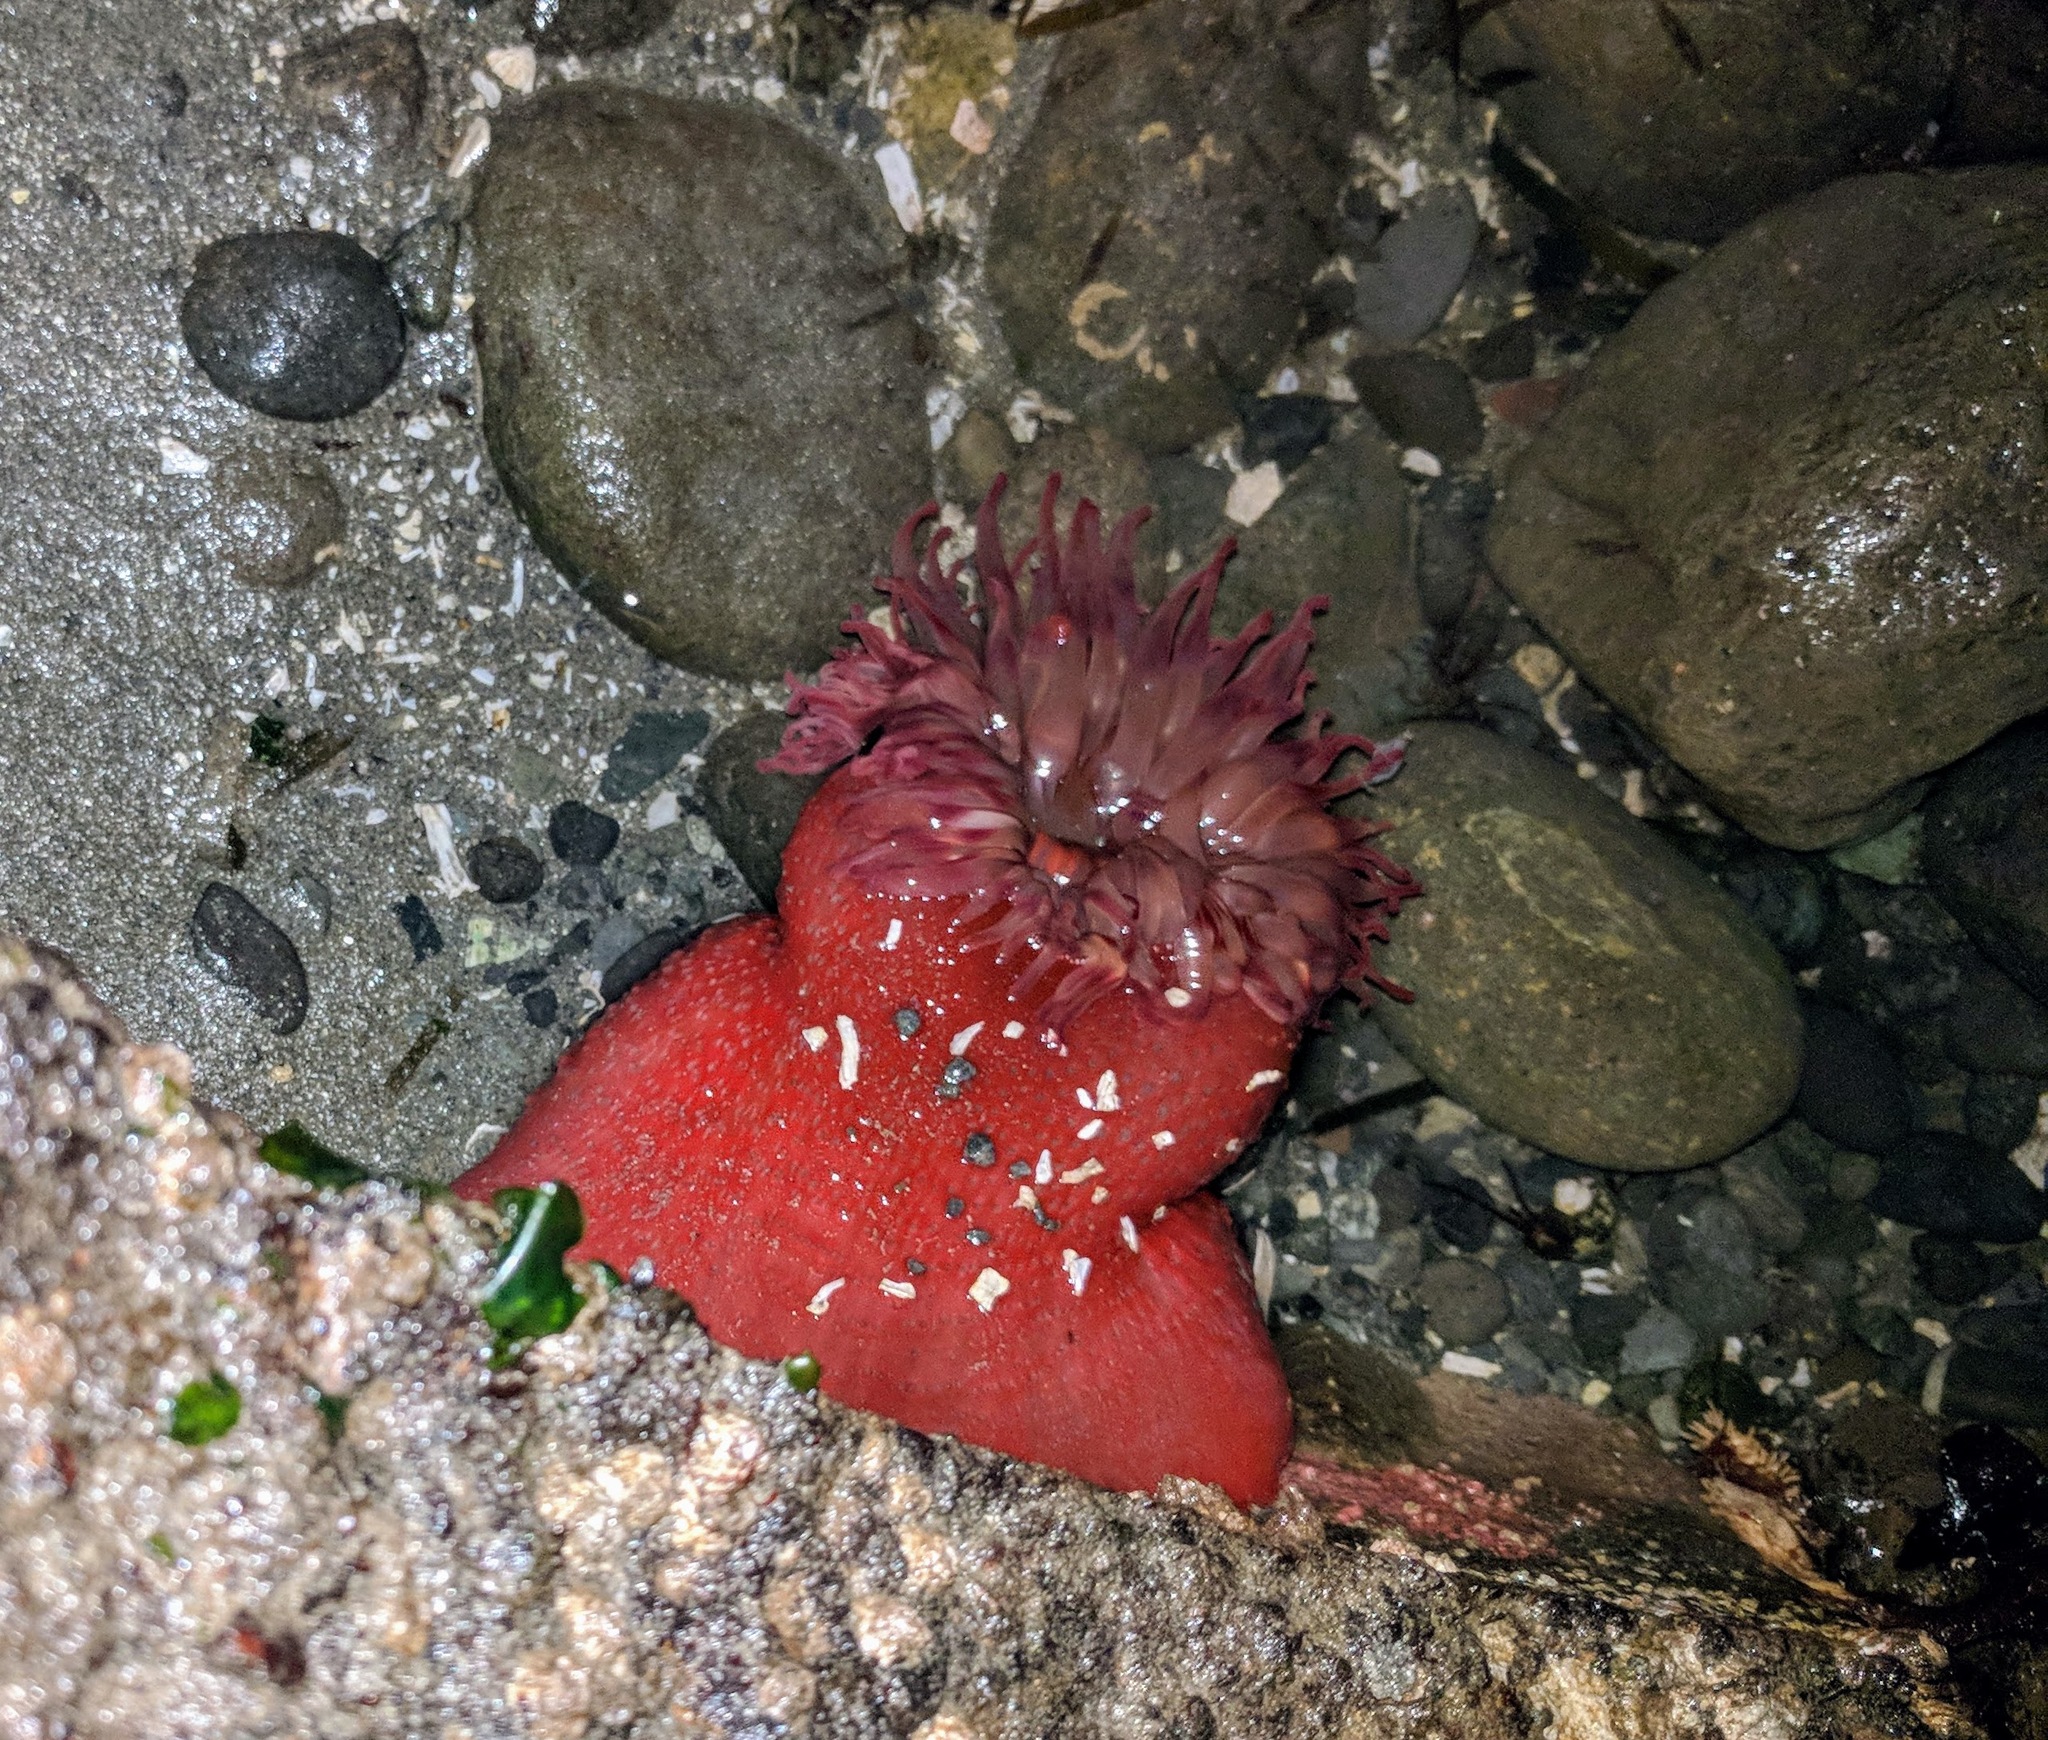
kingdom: Animalia
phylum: Cnidaria
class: Anthozoa
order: Actiniaria
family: Actiniidae
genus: Urticina
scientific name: Urticina grebelnyi
